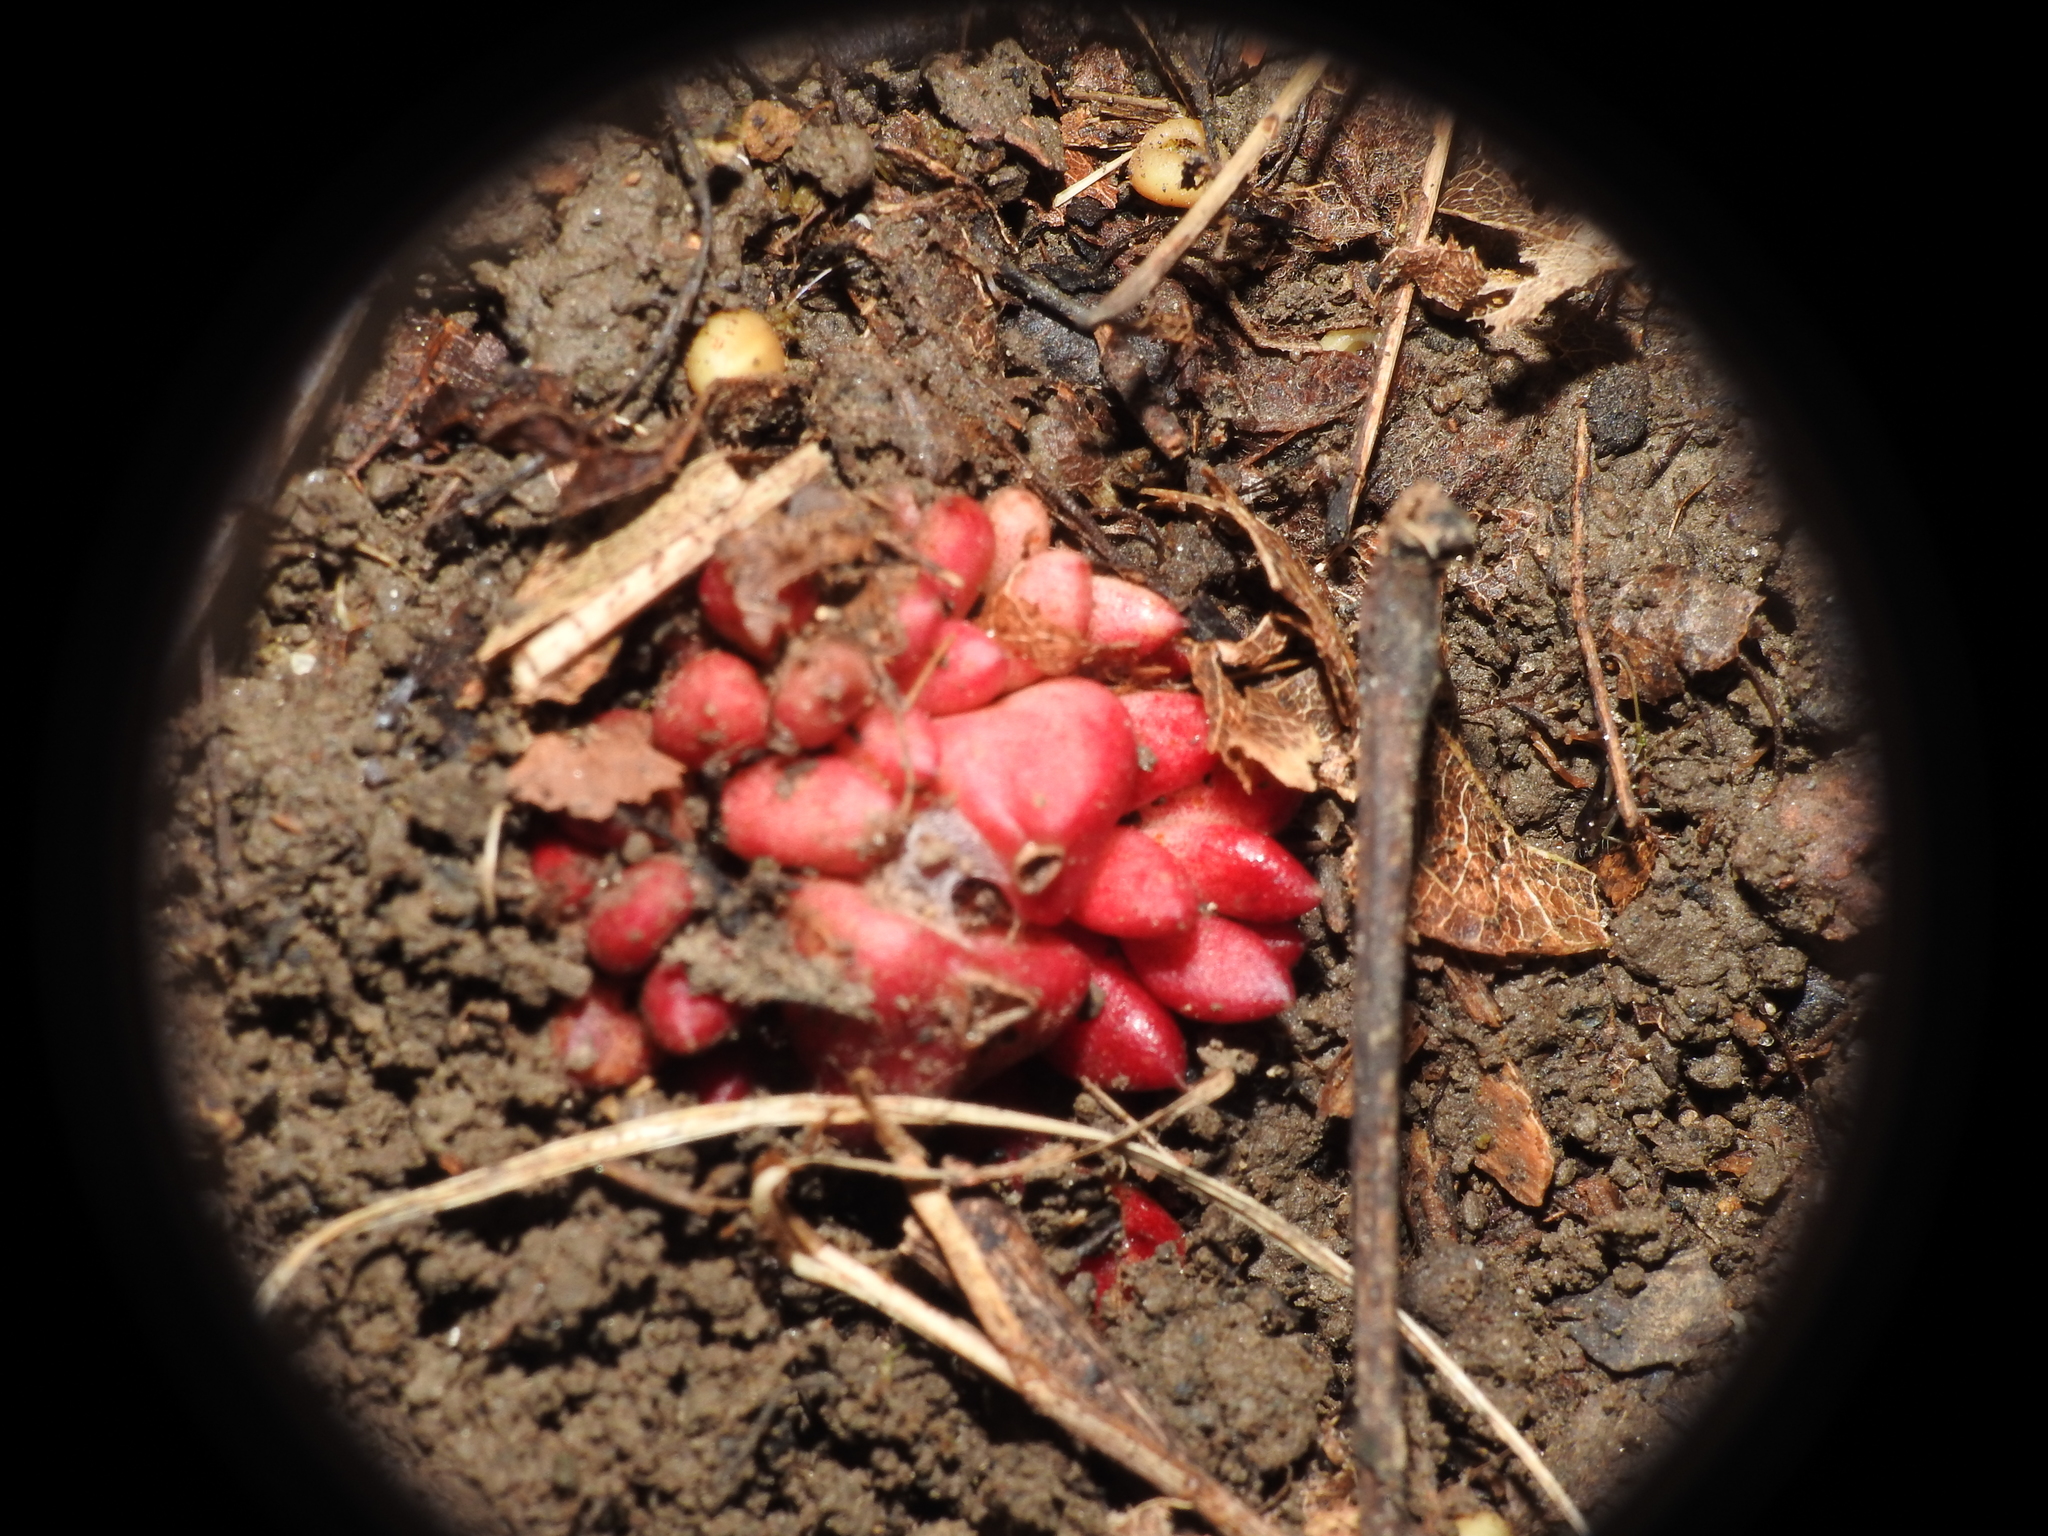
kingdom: Plantae
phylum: Tracheophyta
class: Magnoliopsida
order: Ranunculales
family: Papaveraceae
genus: Dicentra
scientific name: Dicentra cucullaria
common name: Dutchman's breeches
